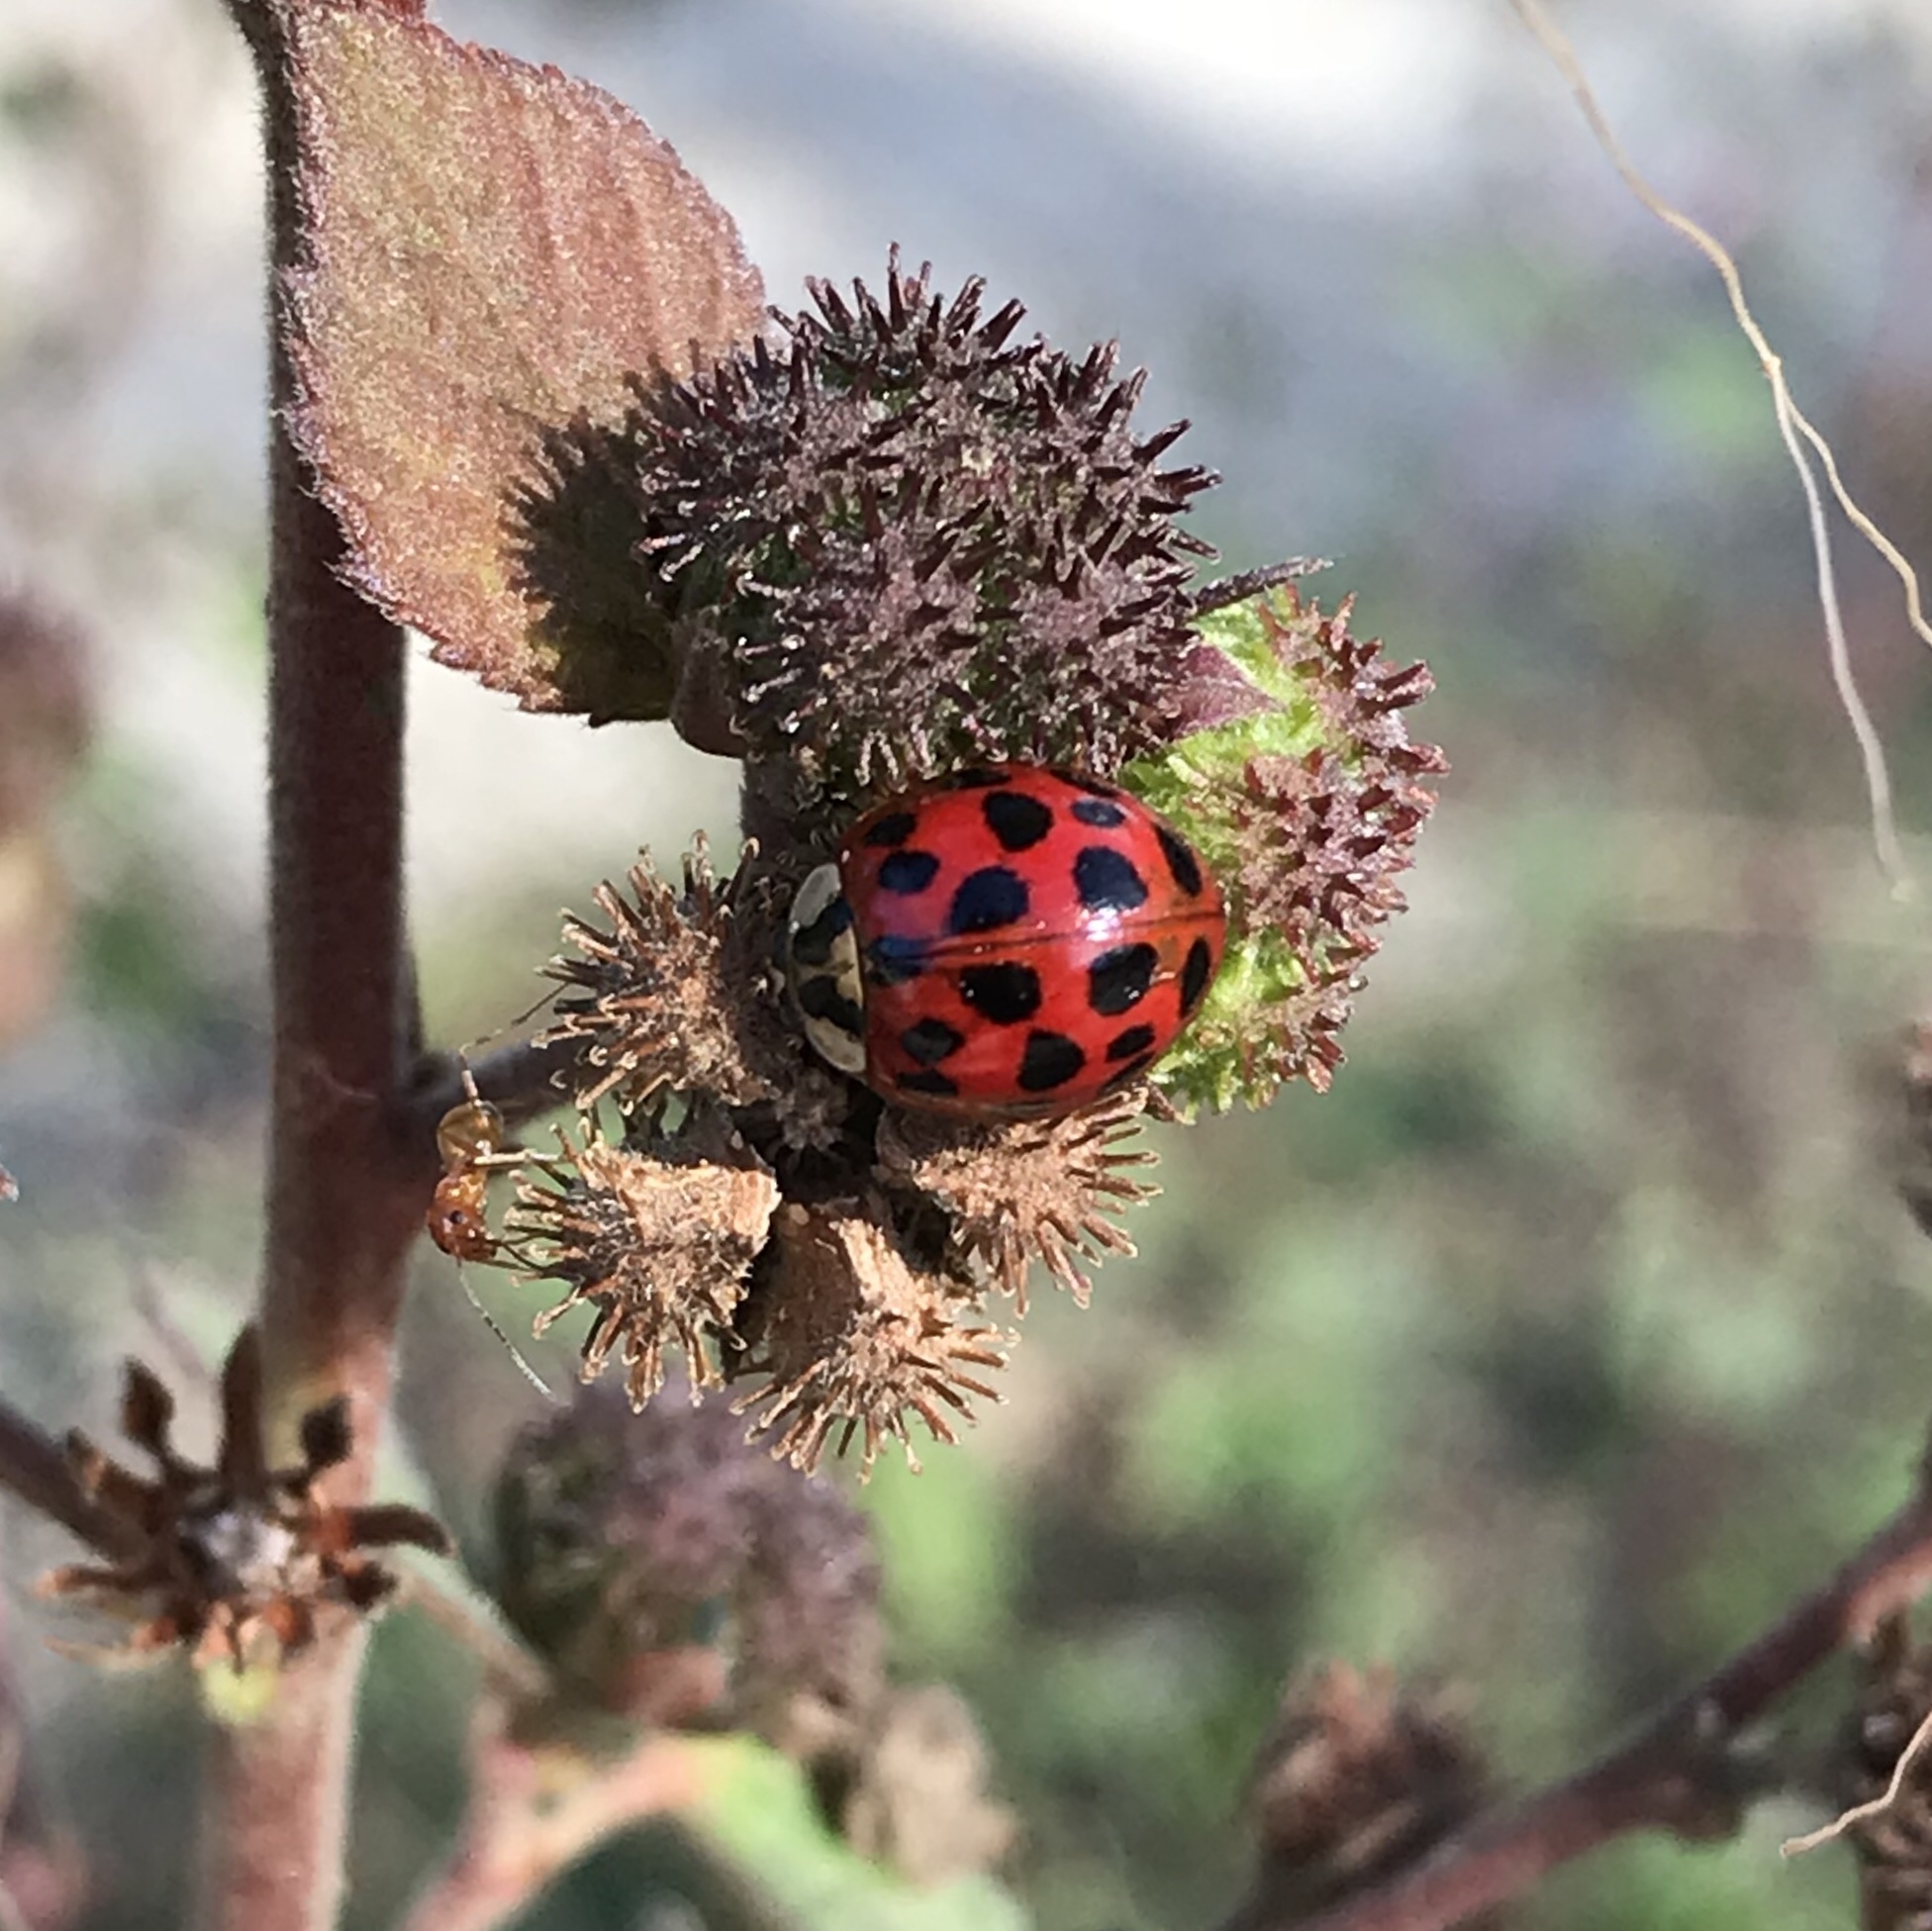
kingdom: Animalia
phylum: Arthropoda
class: Insecta
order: Coleoptera
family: Coccinellidae
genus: Harmonia
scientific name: Harmonia axyridis
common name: Harlequin ladybird
